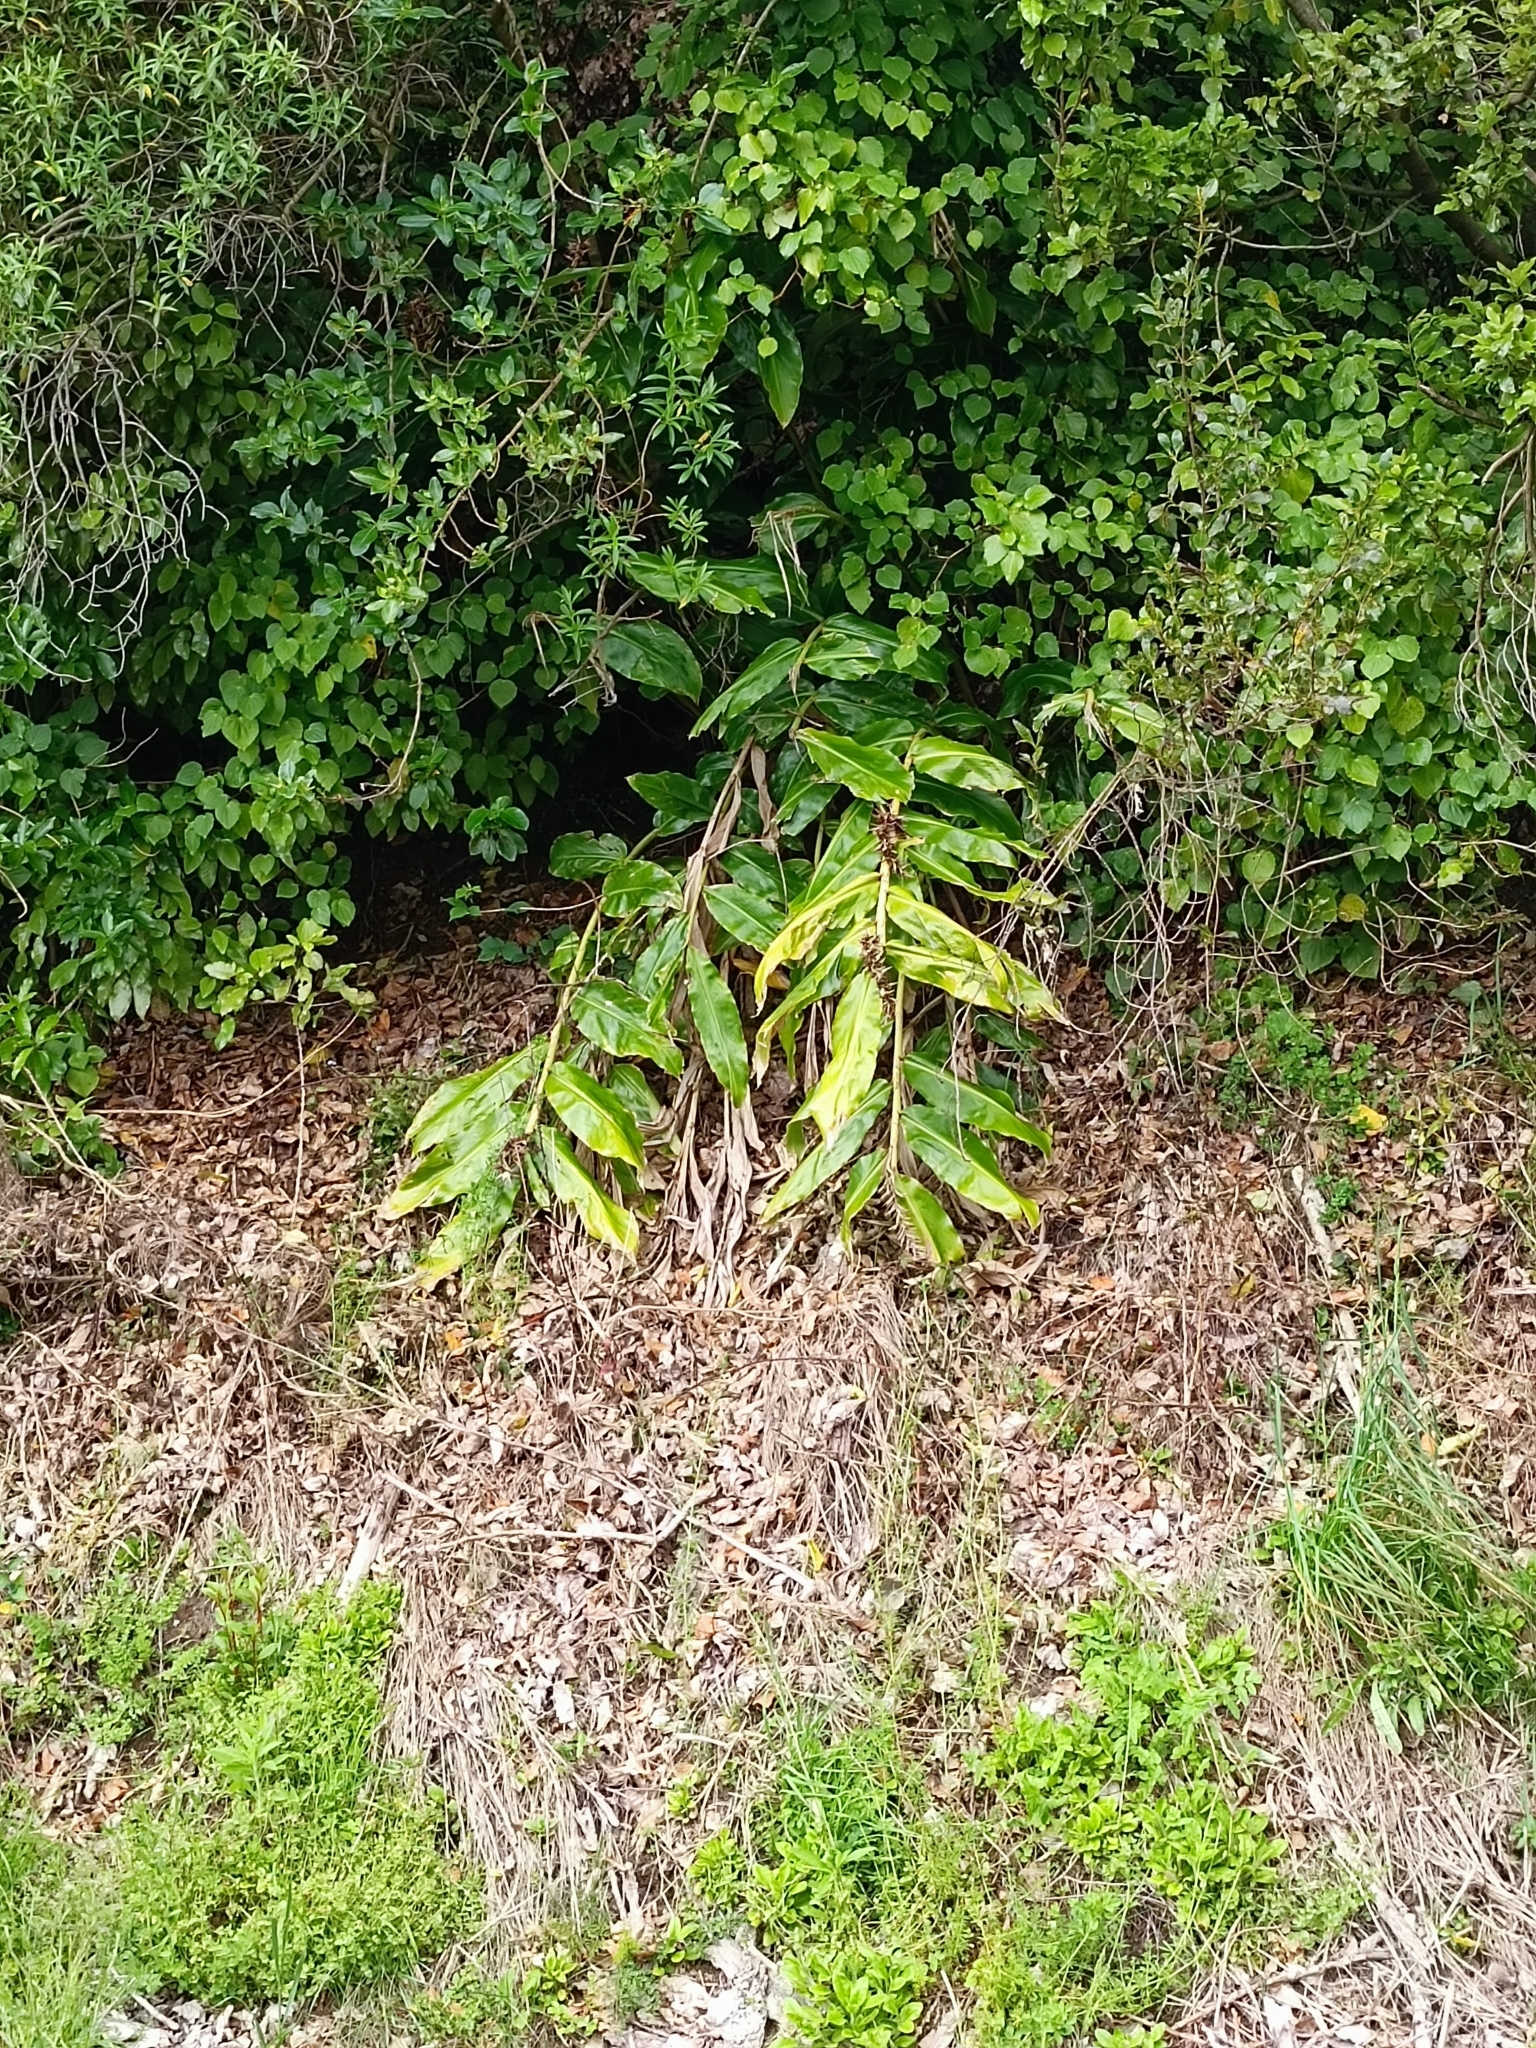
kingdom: Plantae
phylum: Tracheophyta
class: Liliopsida
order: Zingiberales
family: Zingiberaceae
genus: Hedychium
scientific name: Hedychium gardnerianum
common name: Himalayan ginger
